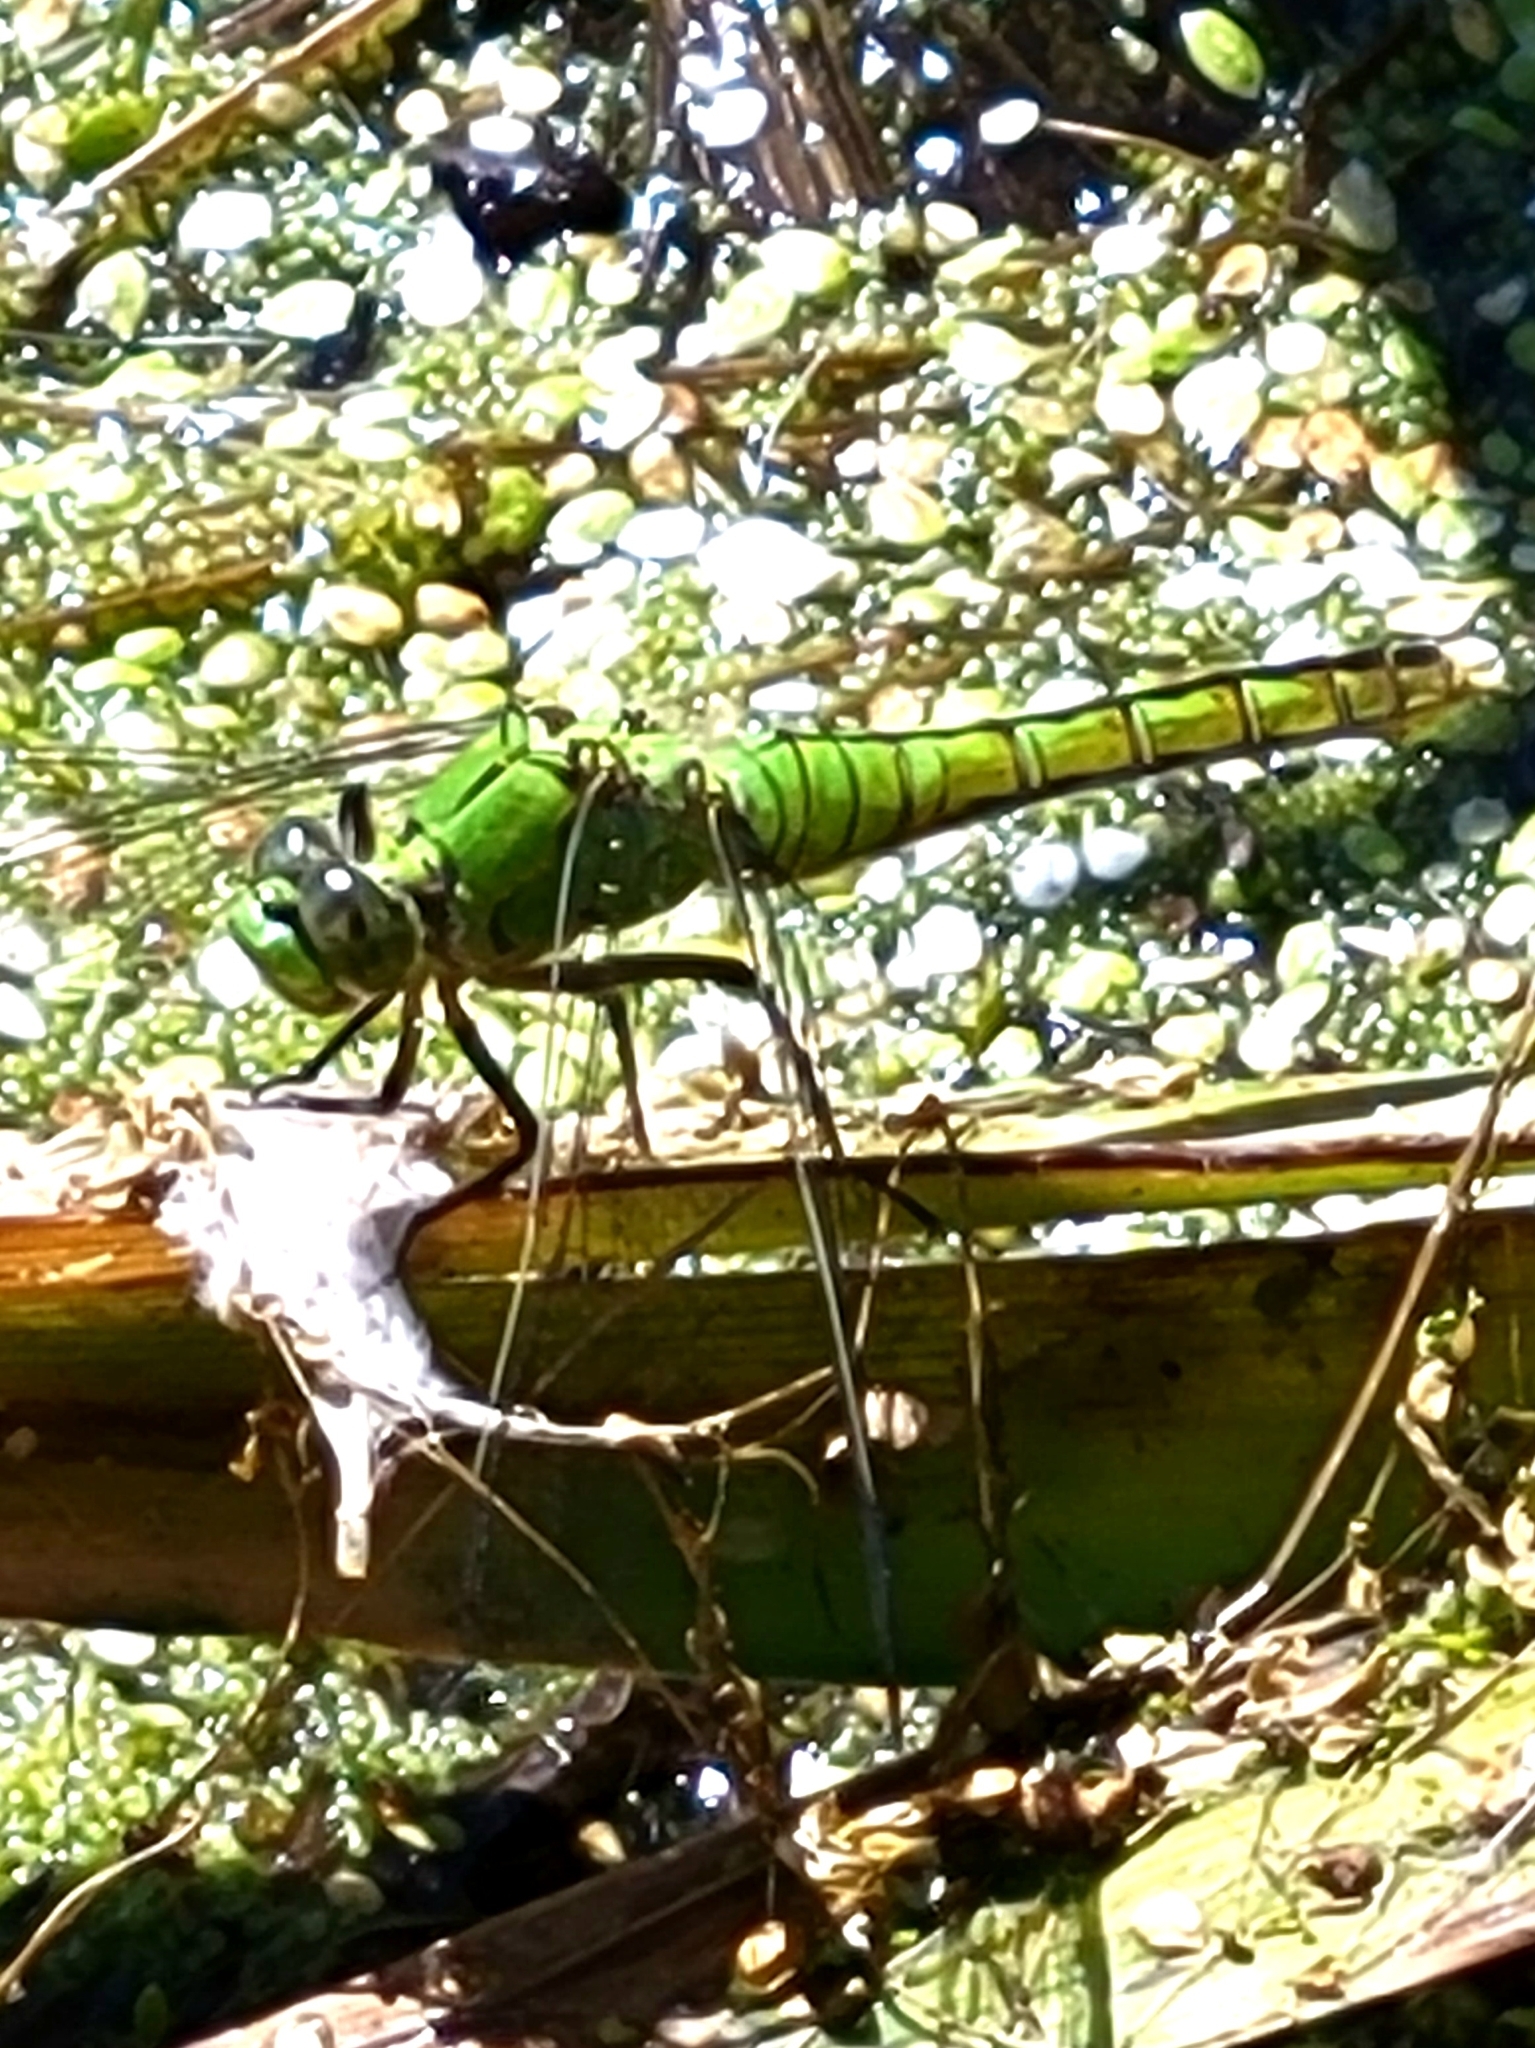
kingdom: Animalia
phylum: Arthropoda
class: Insecta
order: Odonata
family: Libellulidae
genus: Erythemis
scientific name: Erythemis collocata
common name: Western pondhawk
